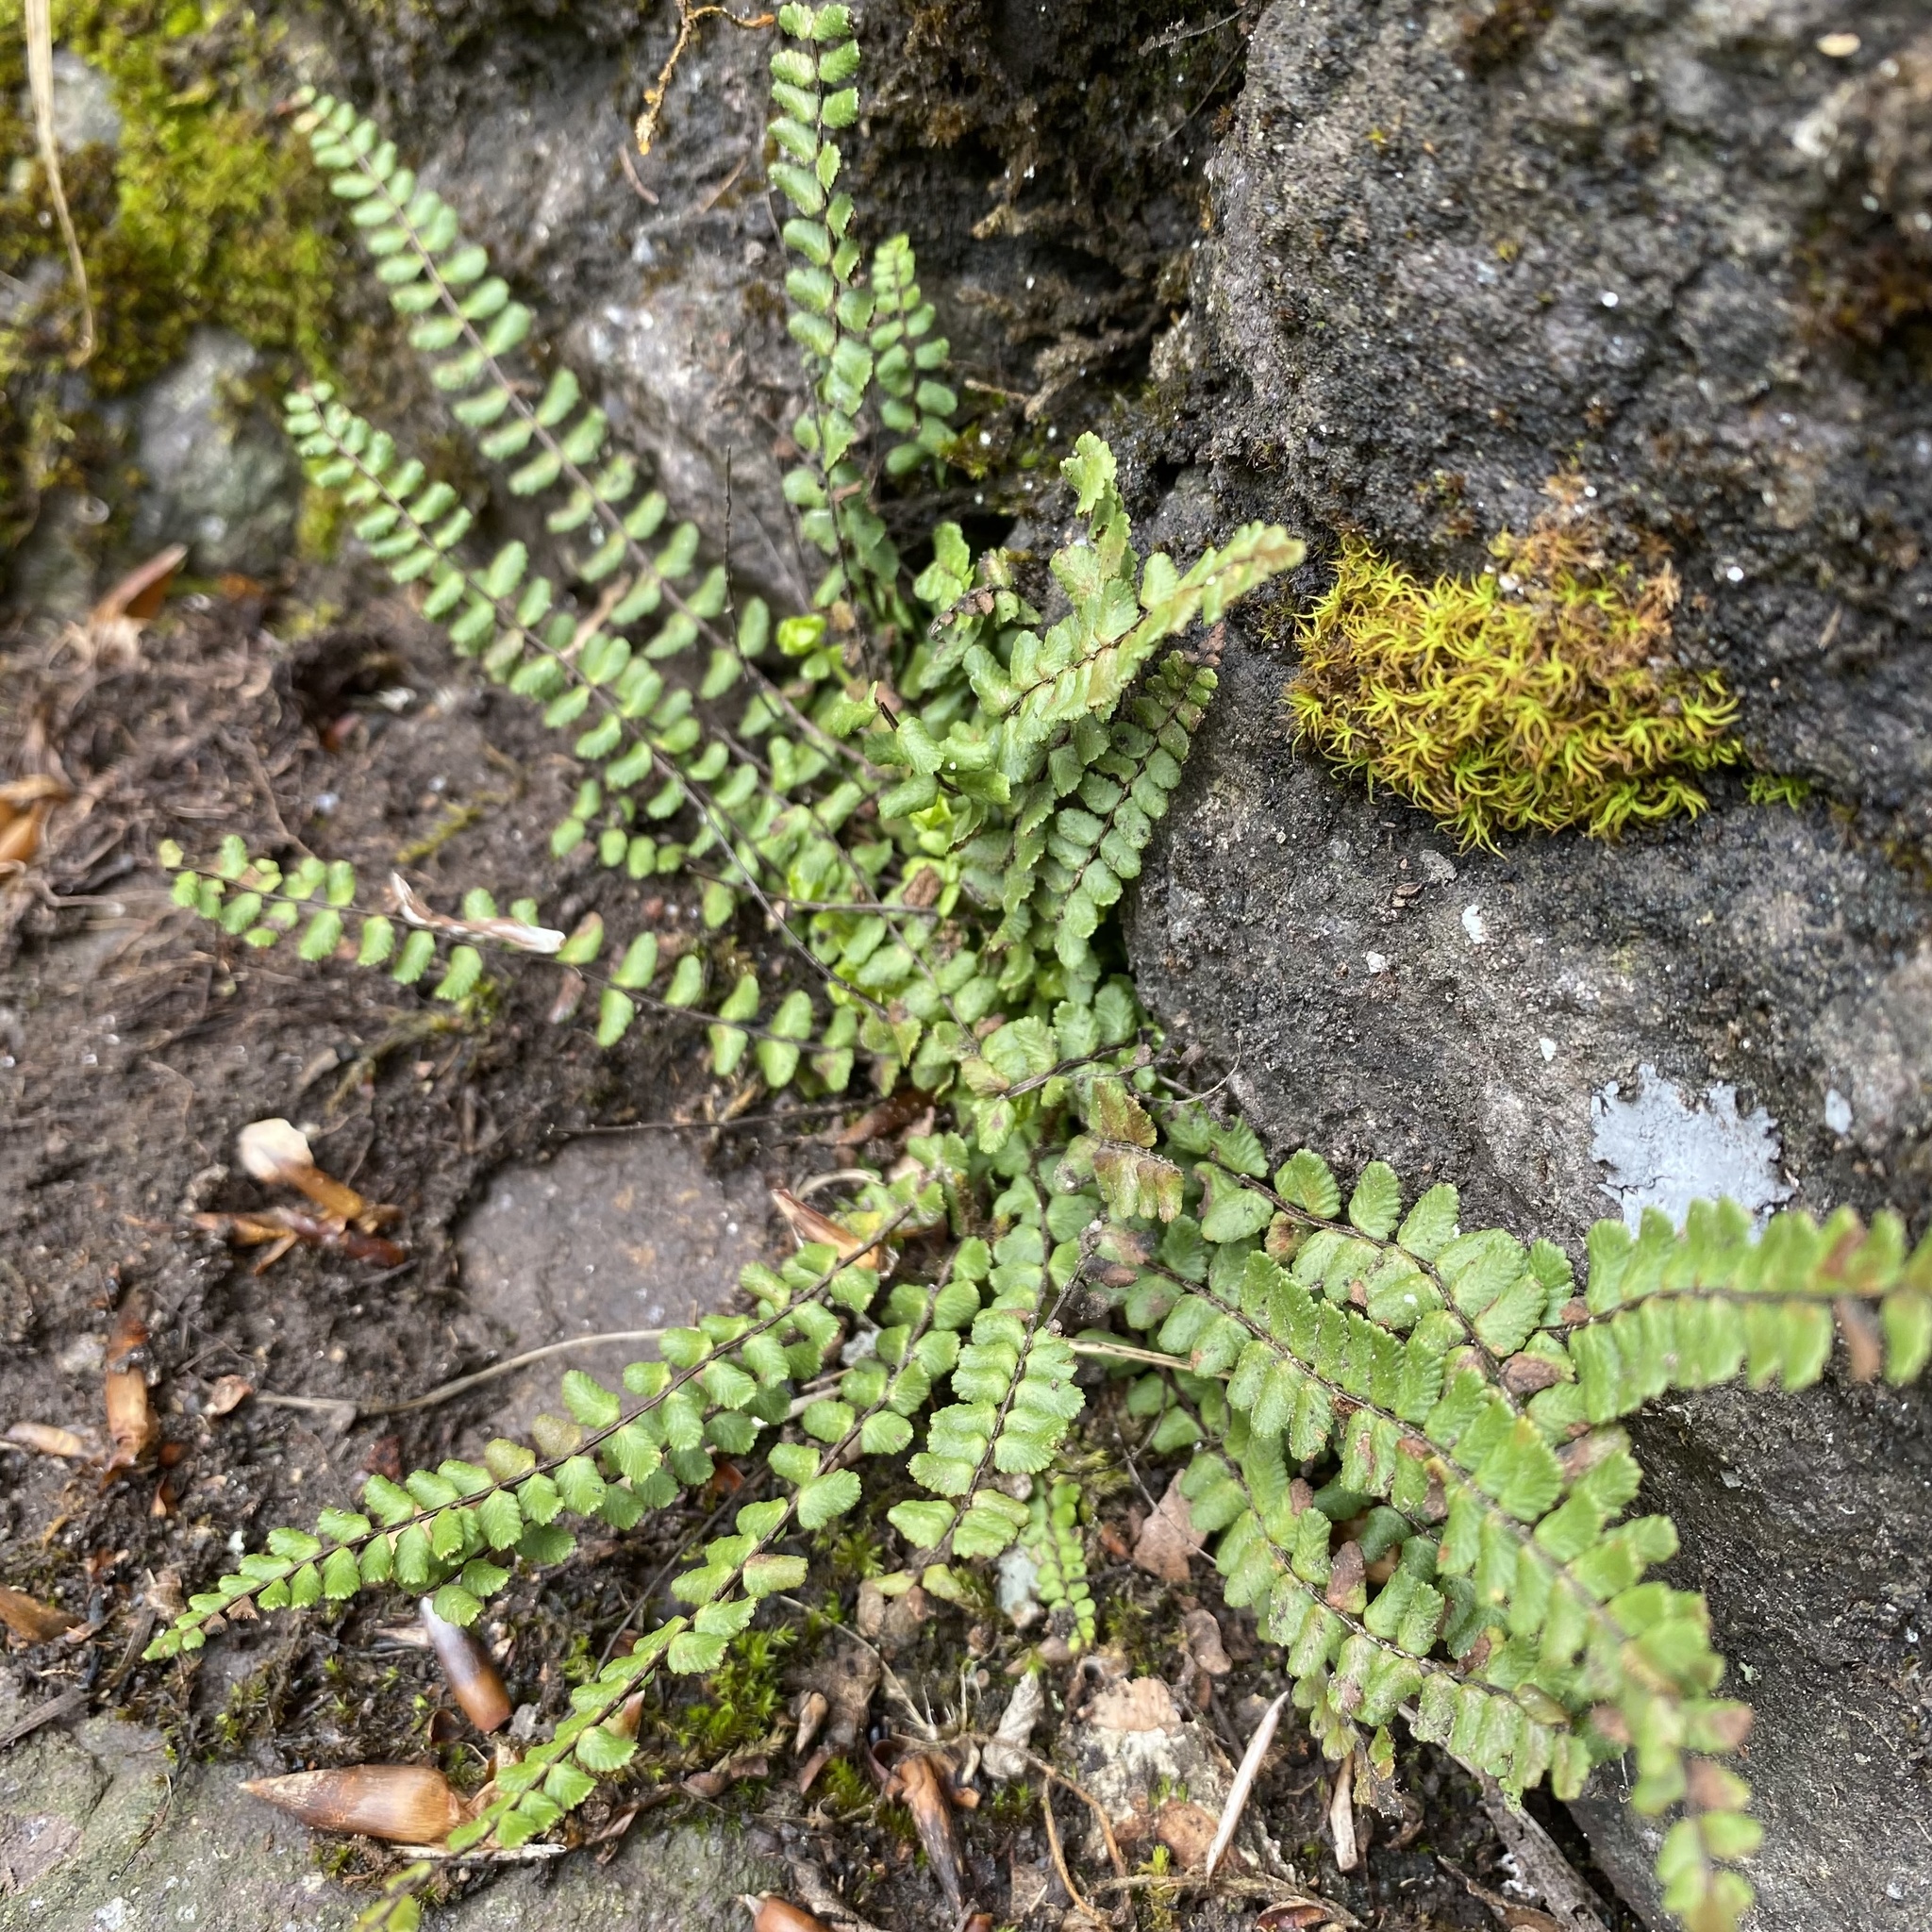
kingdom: Plantae
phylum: Tracheophyta
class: Polypodiopsida
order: Polypodiales
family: Aspleniaceae
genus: Asplenium
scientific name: Asplenium trichomanes
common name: Maidenhair spleenwort
